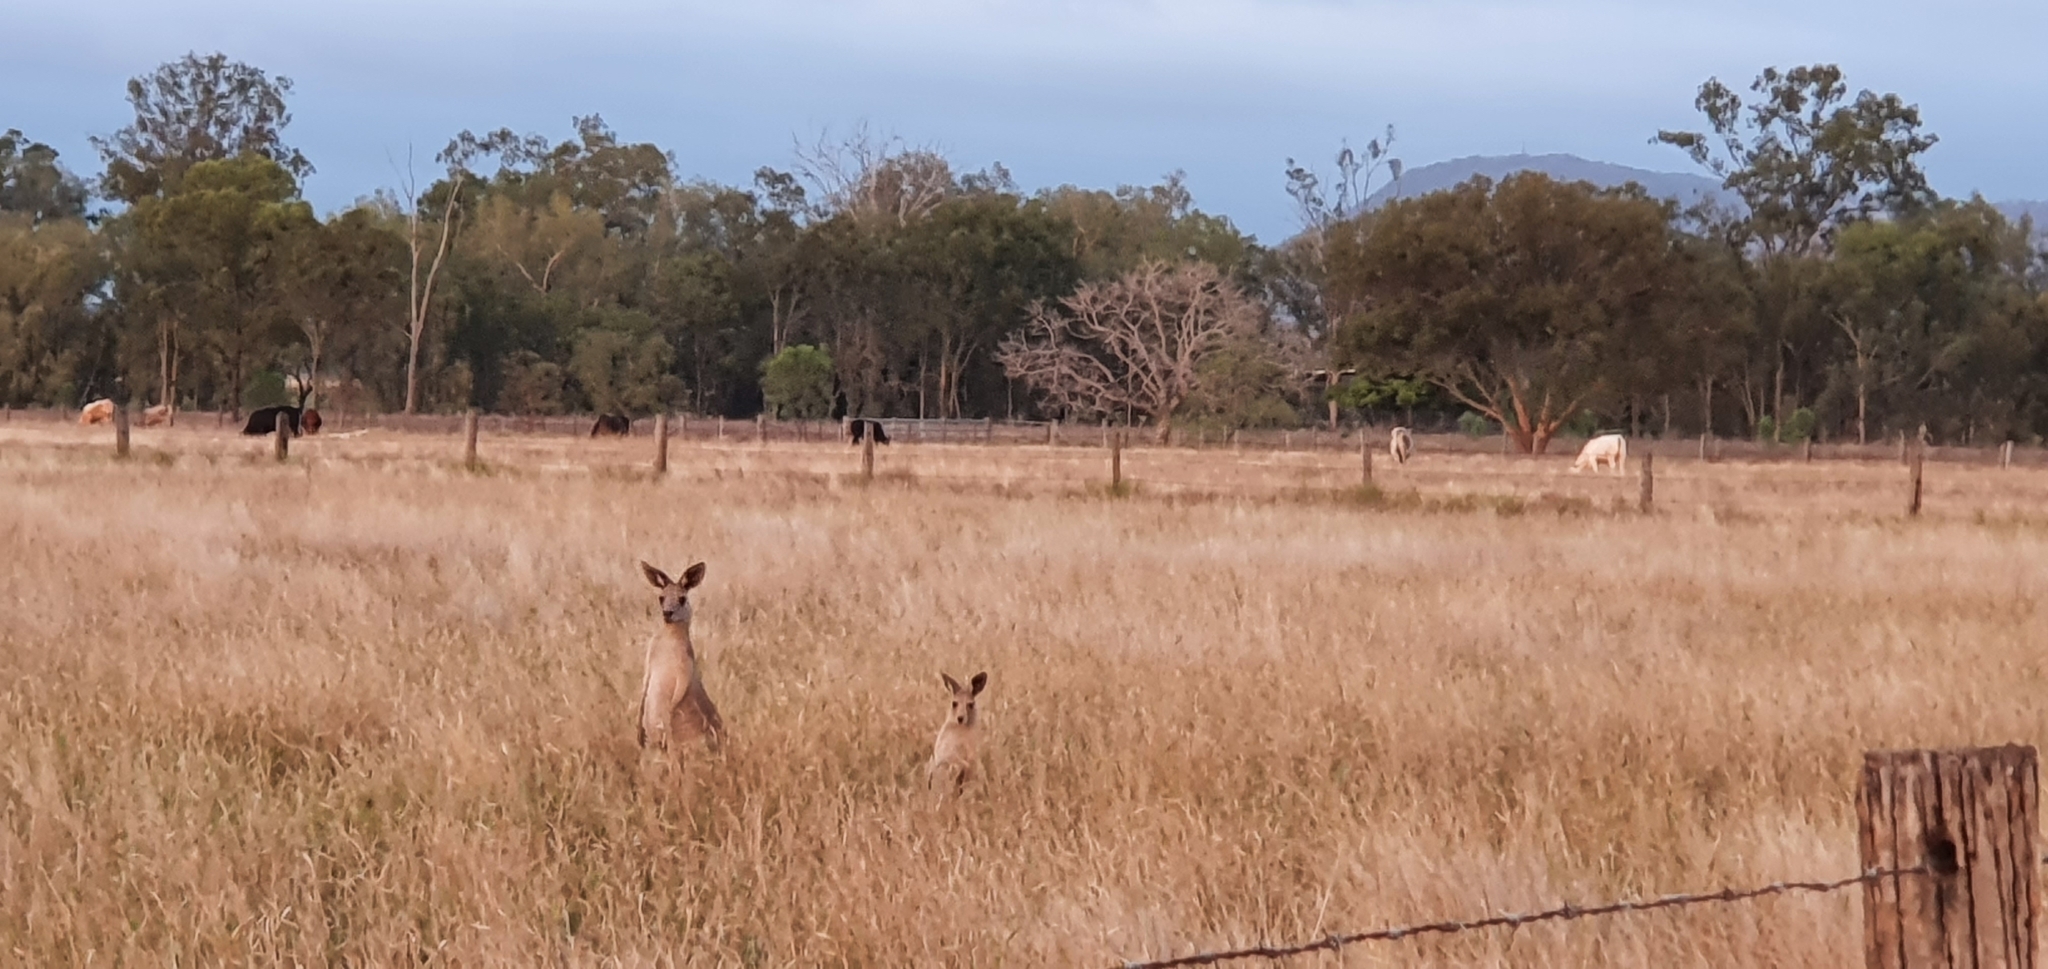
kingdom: Animalia
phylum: Chordata
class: Mammalia
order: Diprotodontia
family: Macropodidae
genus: Macropus
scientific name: Macropus giganteus
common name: Eastern grey kangaroo
